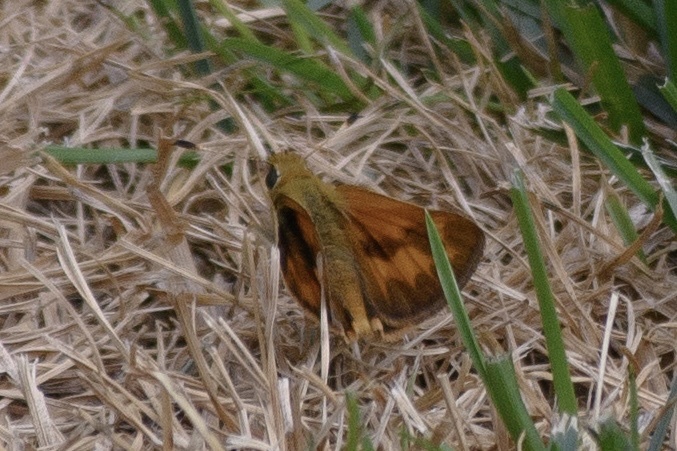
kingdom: Animalia
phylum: Arthropoda
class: Insecta
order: Lepidoptera
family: Hesperiidae
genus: Ochlodes
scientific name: Ochlodes sylvanoides
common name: Woodland skipper
